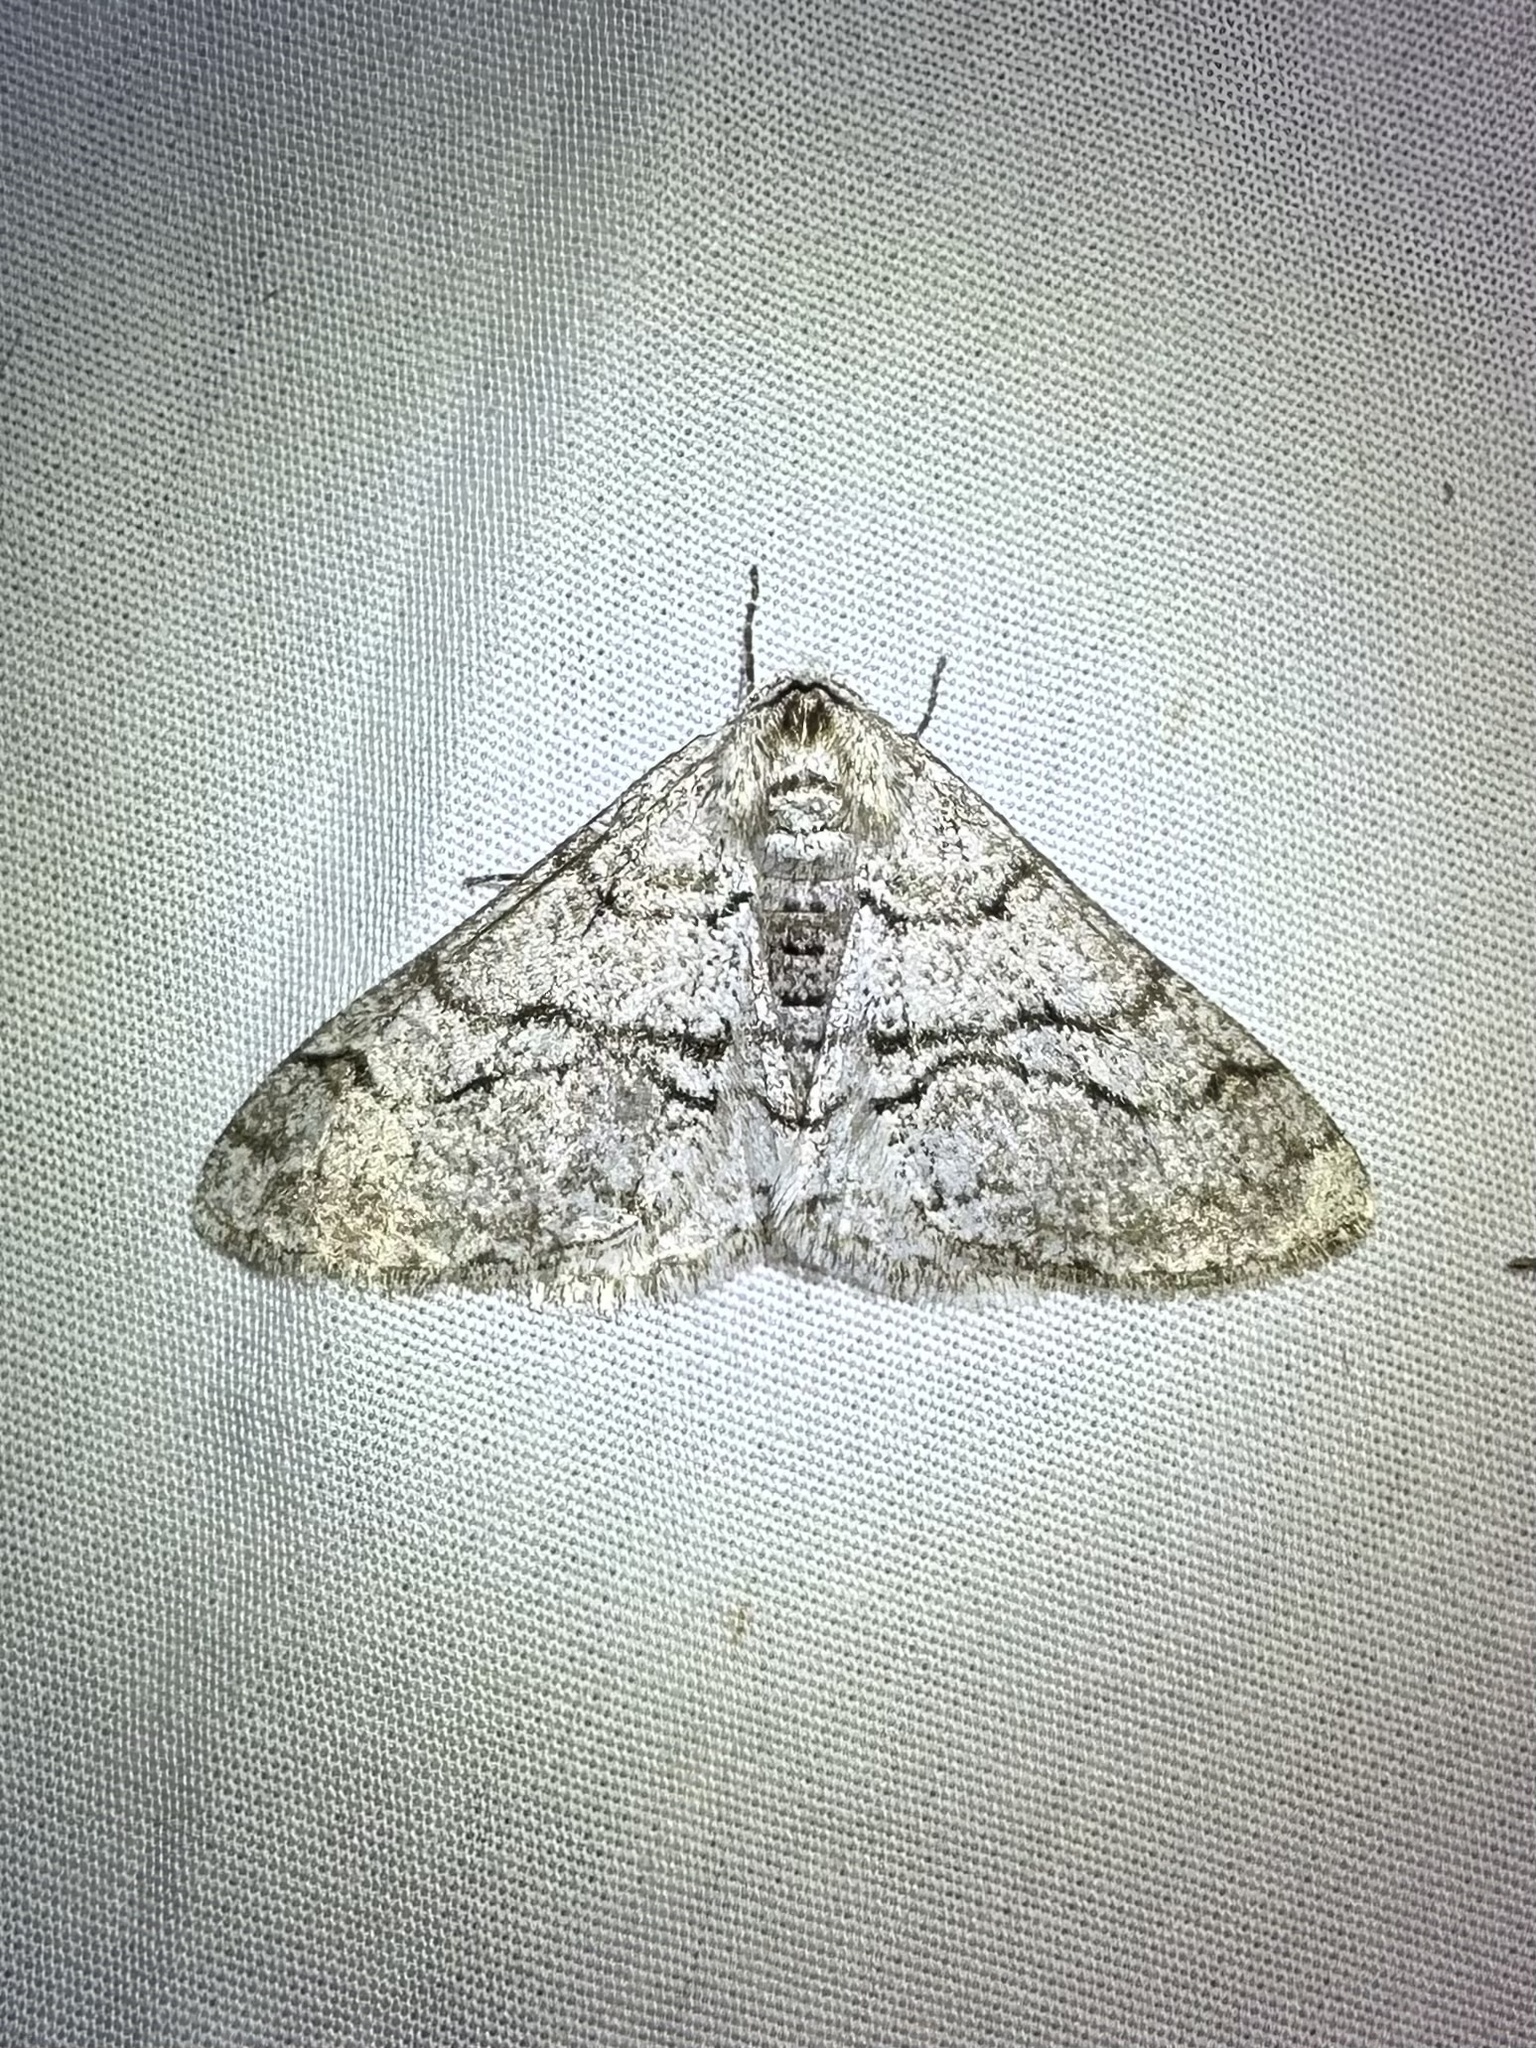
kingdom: Animalia
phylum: Arthropoda
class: Insecta
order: Lepidoptera
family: Geometridae
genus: Phigalia
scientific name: Phigalia titea
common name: Spiny looper
